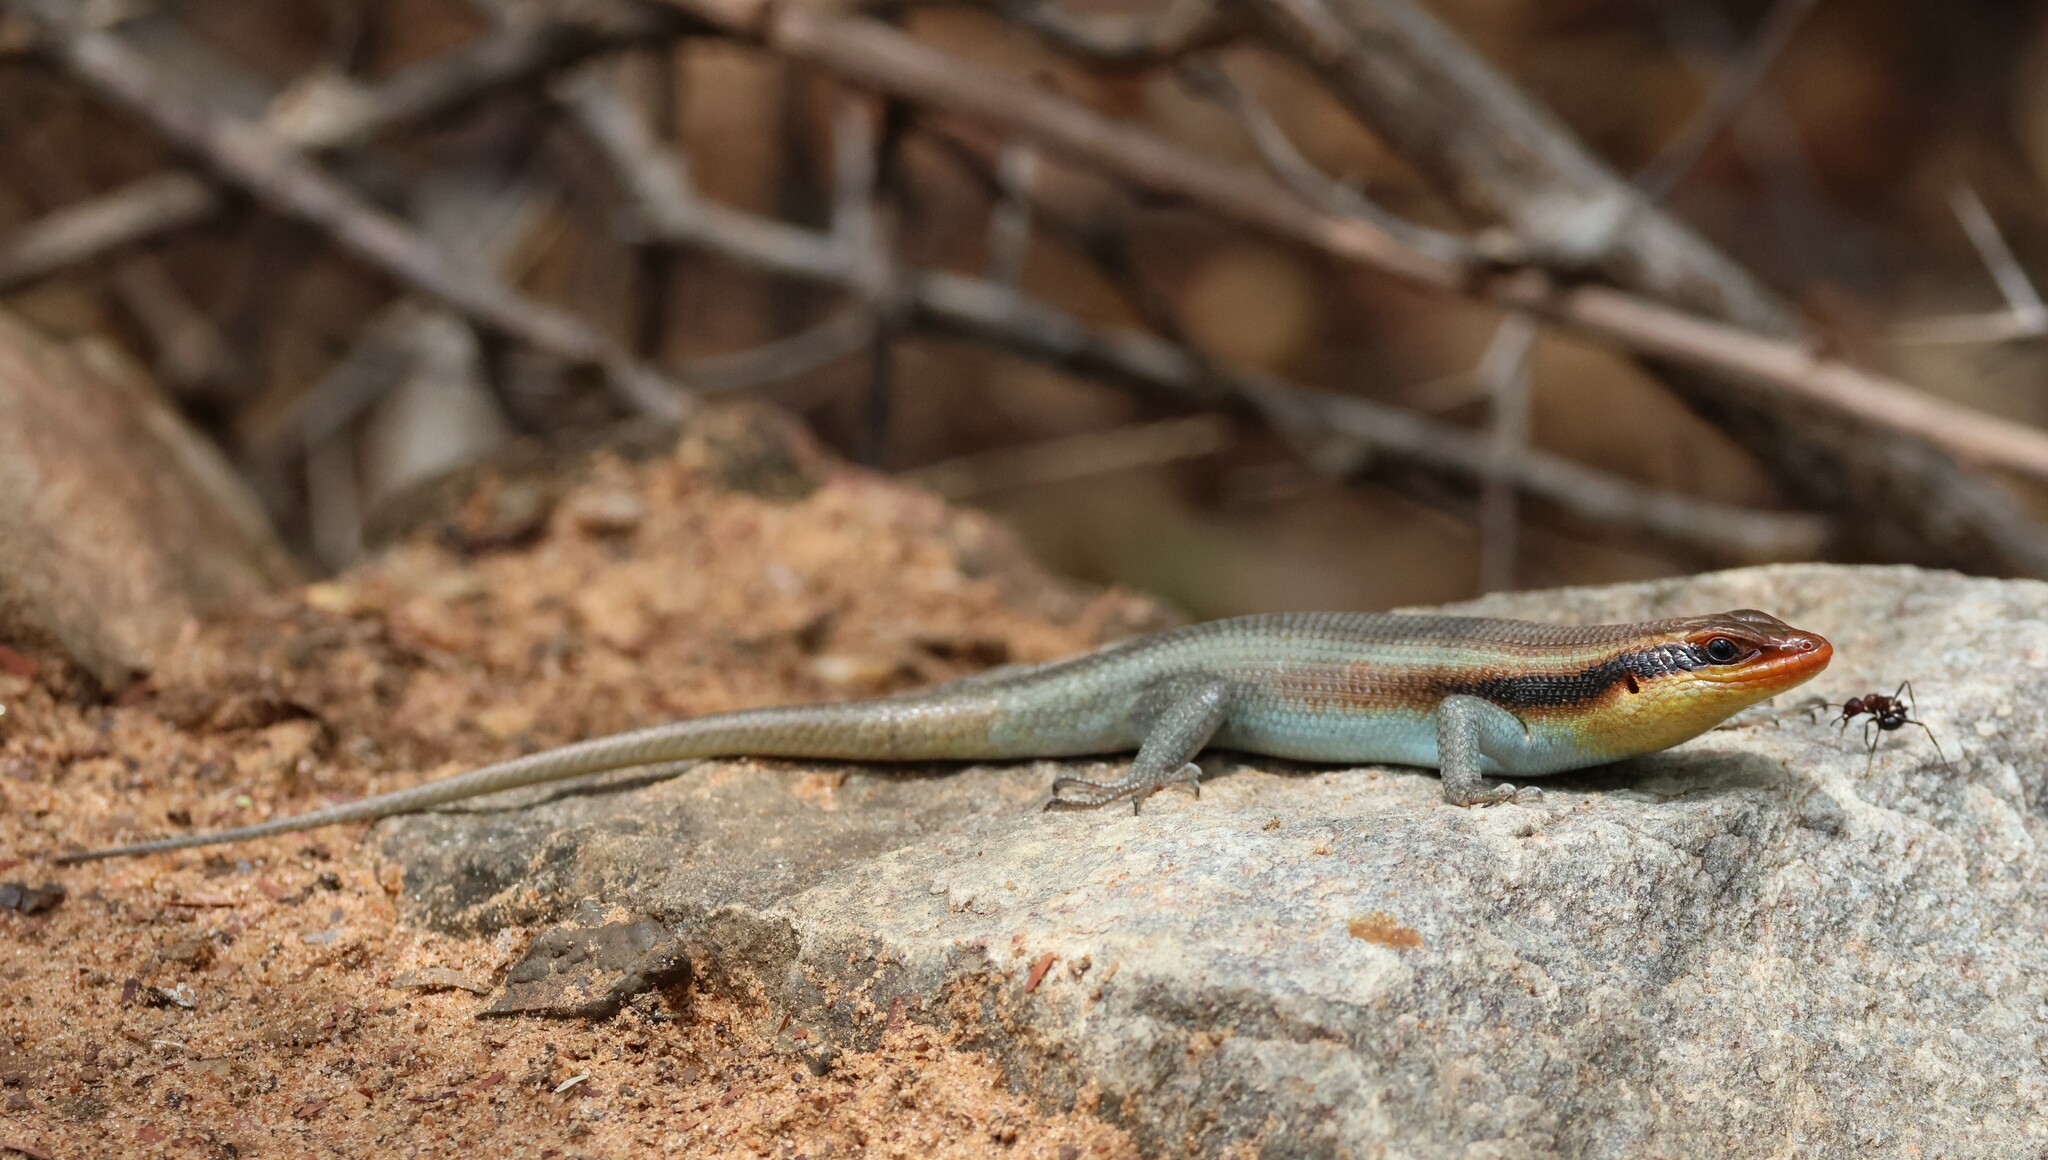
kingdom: Animalia
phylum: Chordata
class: Squamata
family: Scincidae
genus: Trachylepis
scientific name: Trachylepis wahlbergii
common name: Wahlberg’s striped skink
